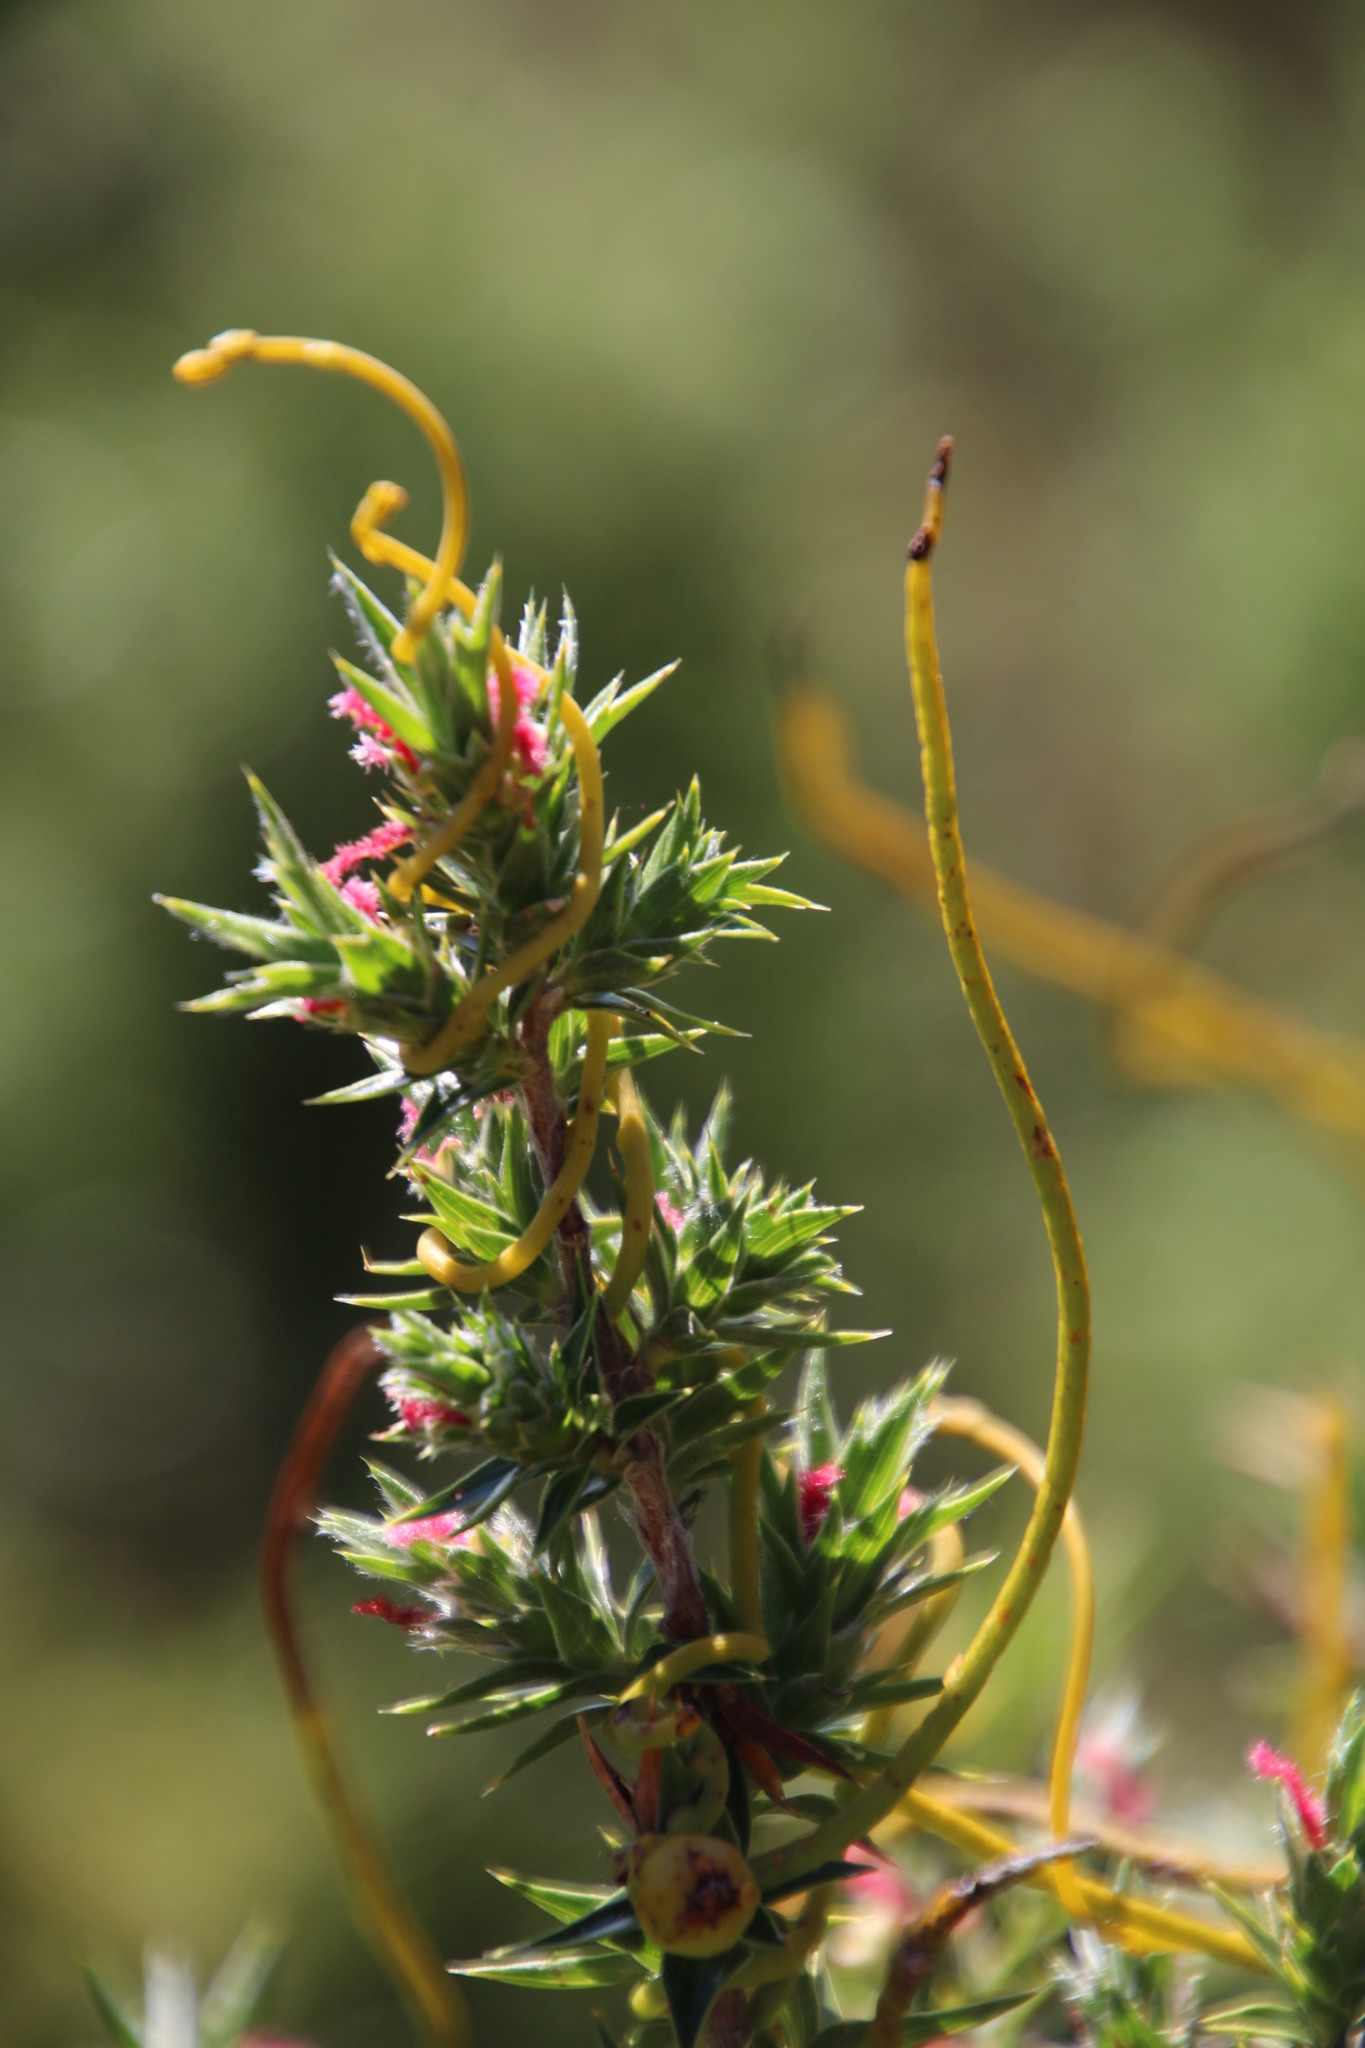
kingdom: Plantae
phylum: Tracheophyta
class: Magnoliopsida
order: Rosales
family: Rosaceae
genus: Cliffortia
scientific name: Cliffortia ruscifolia
